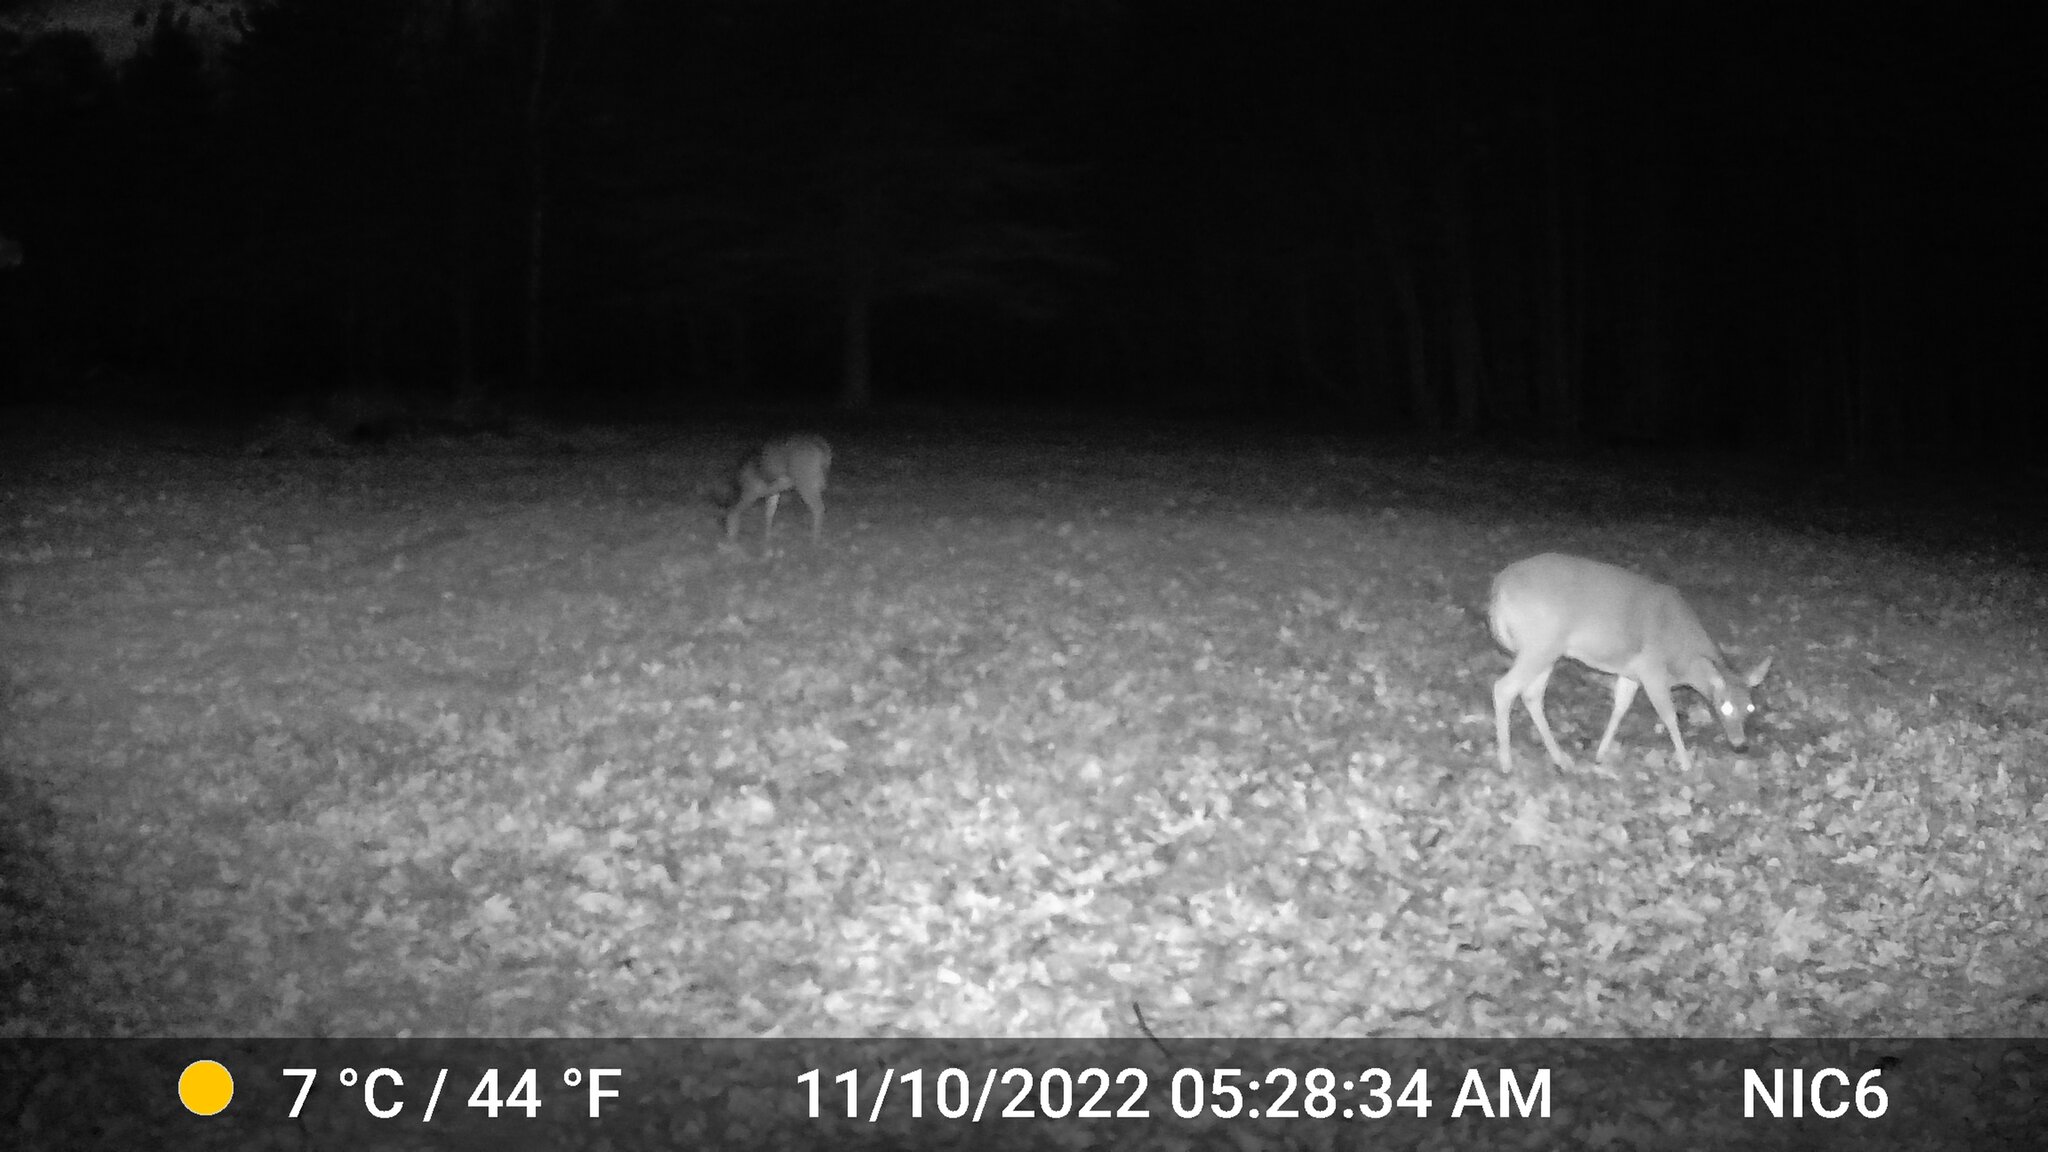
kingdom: Animalia
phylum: Chordata
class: Mammalia
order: Artiodactyla
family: Cervidae
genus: Odocoileus
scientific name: Odocoileus virginianus
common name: White-tailed deer
